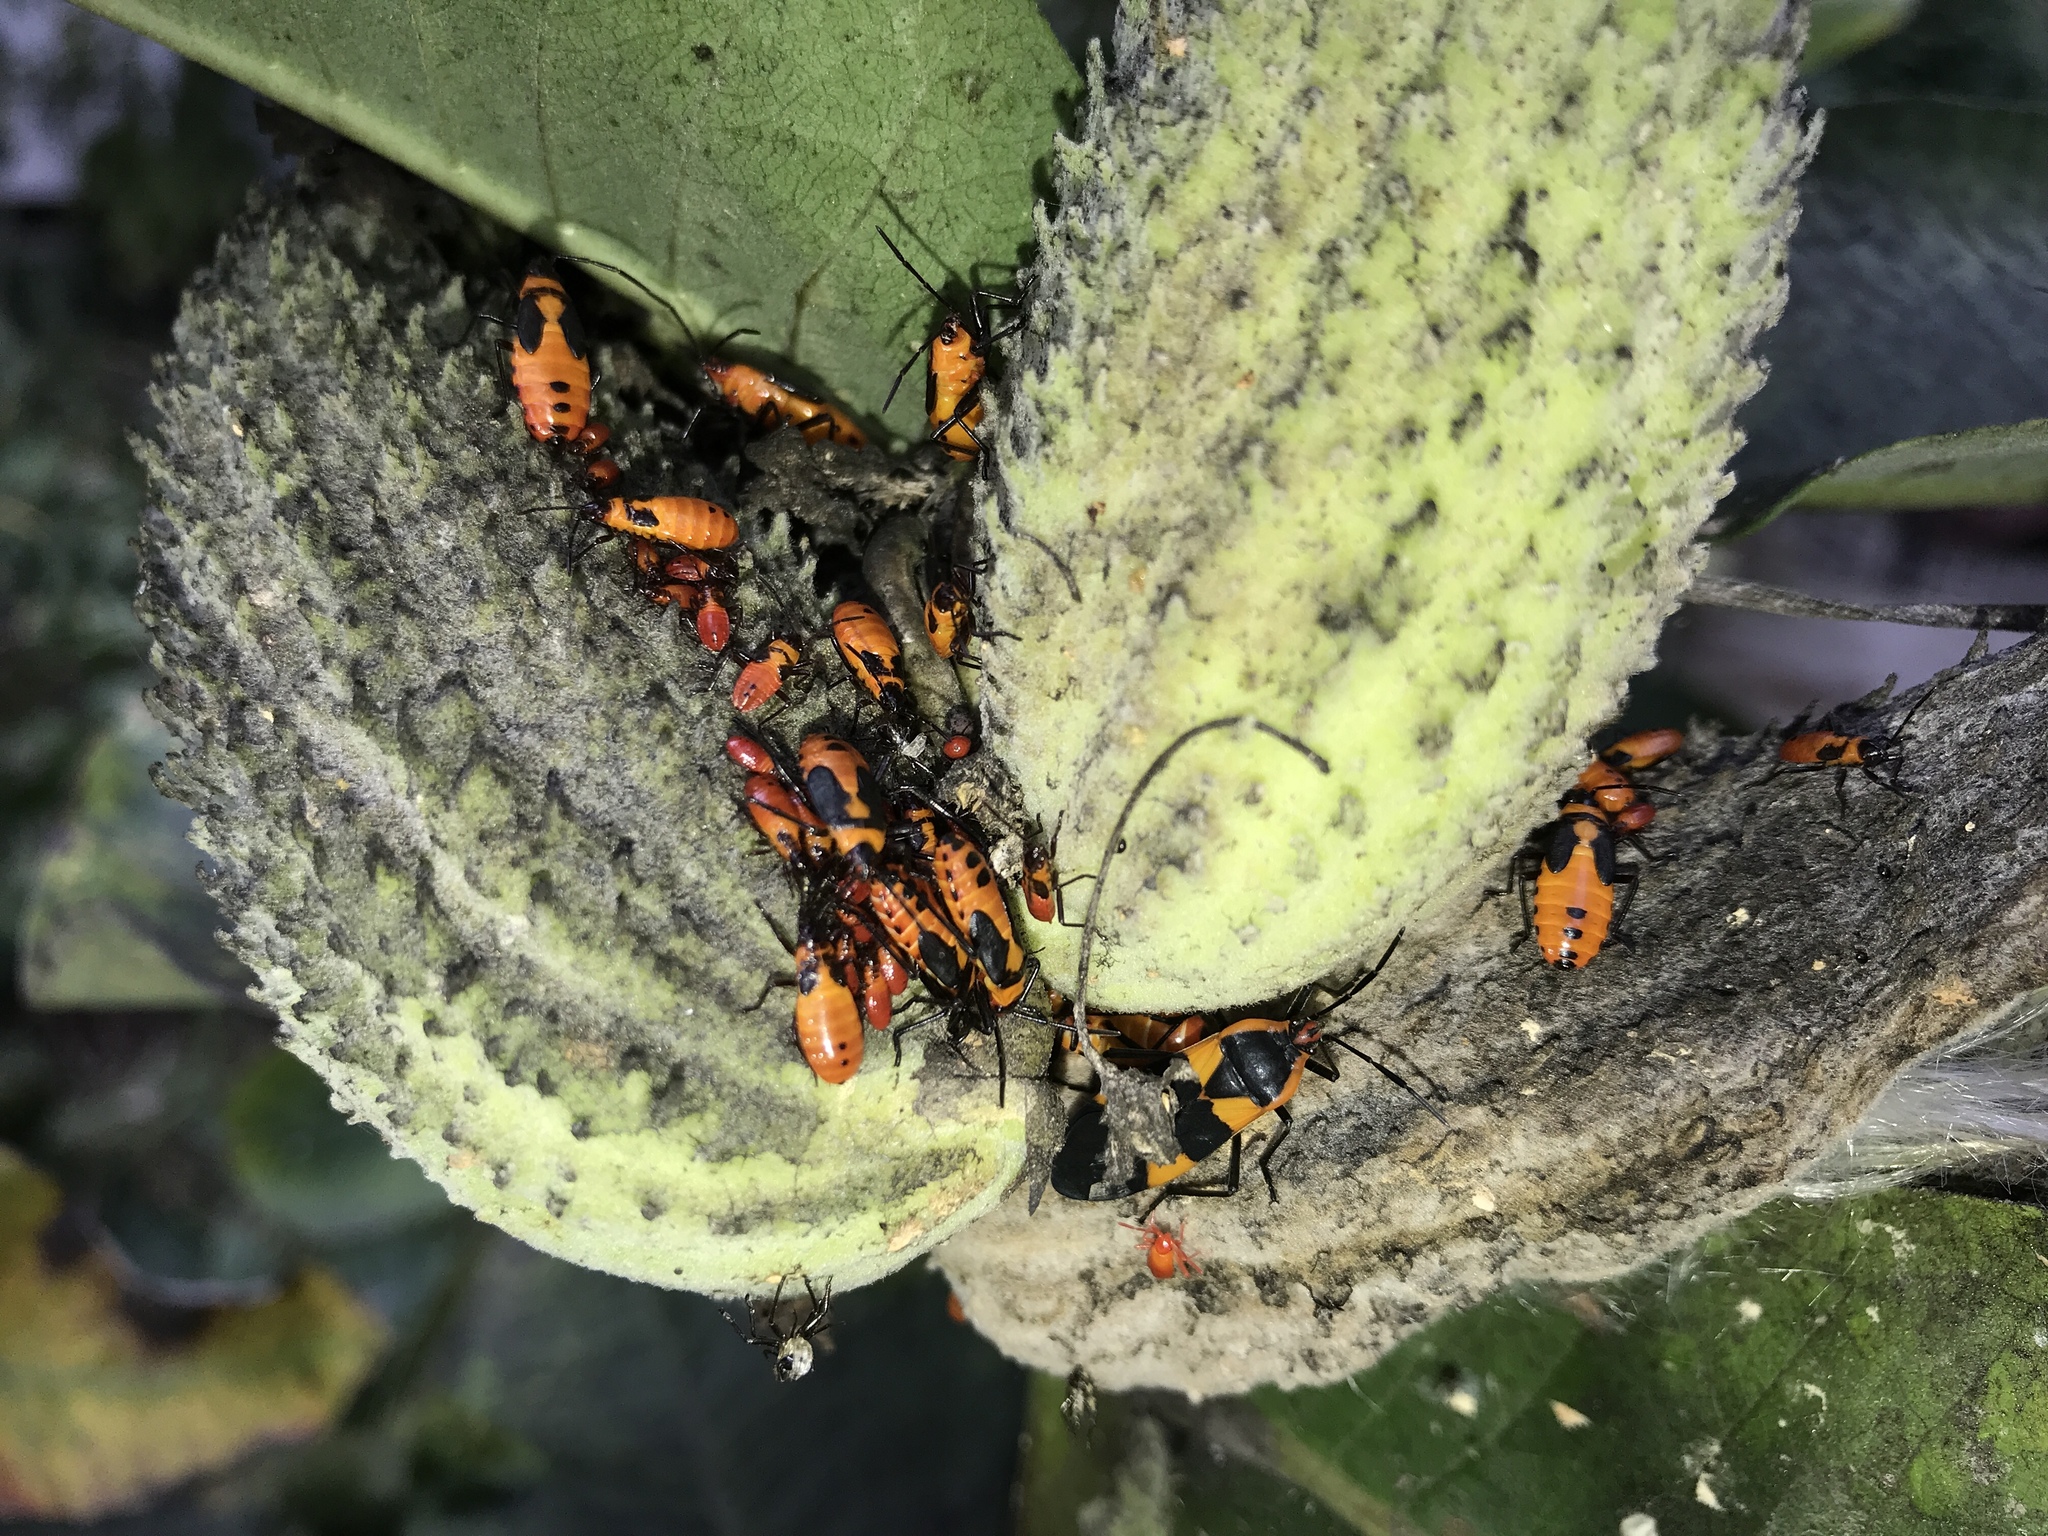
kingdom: Animalia
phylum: Arthropoda
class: Insecta
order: Hemiptera
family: Lygaeidae
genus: Oncopeltus
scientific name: Oncopeltus fasciatus
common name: Large milkweed bug
